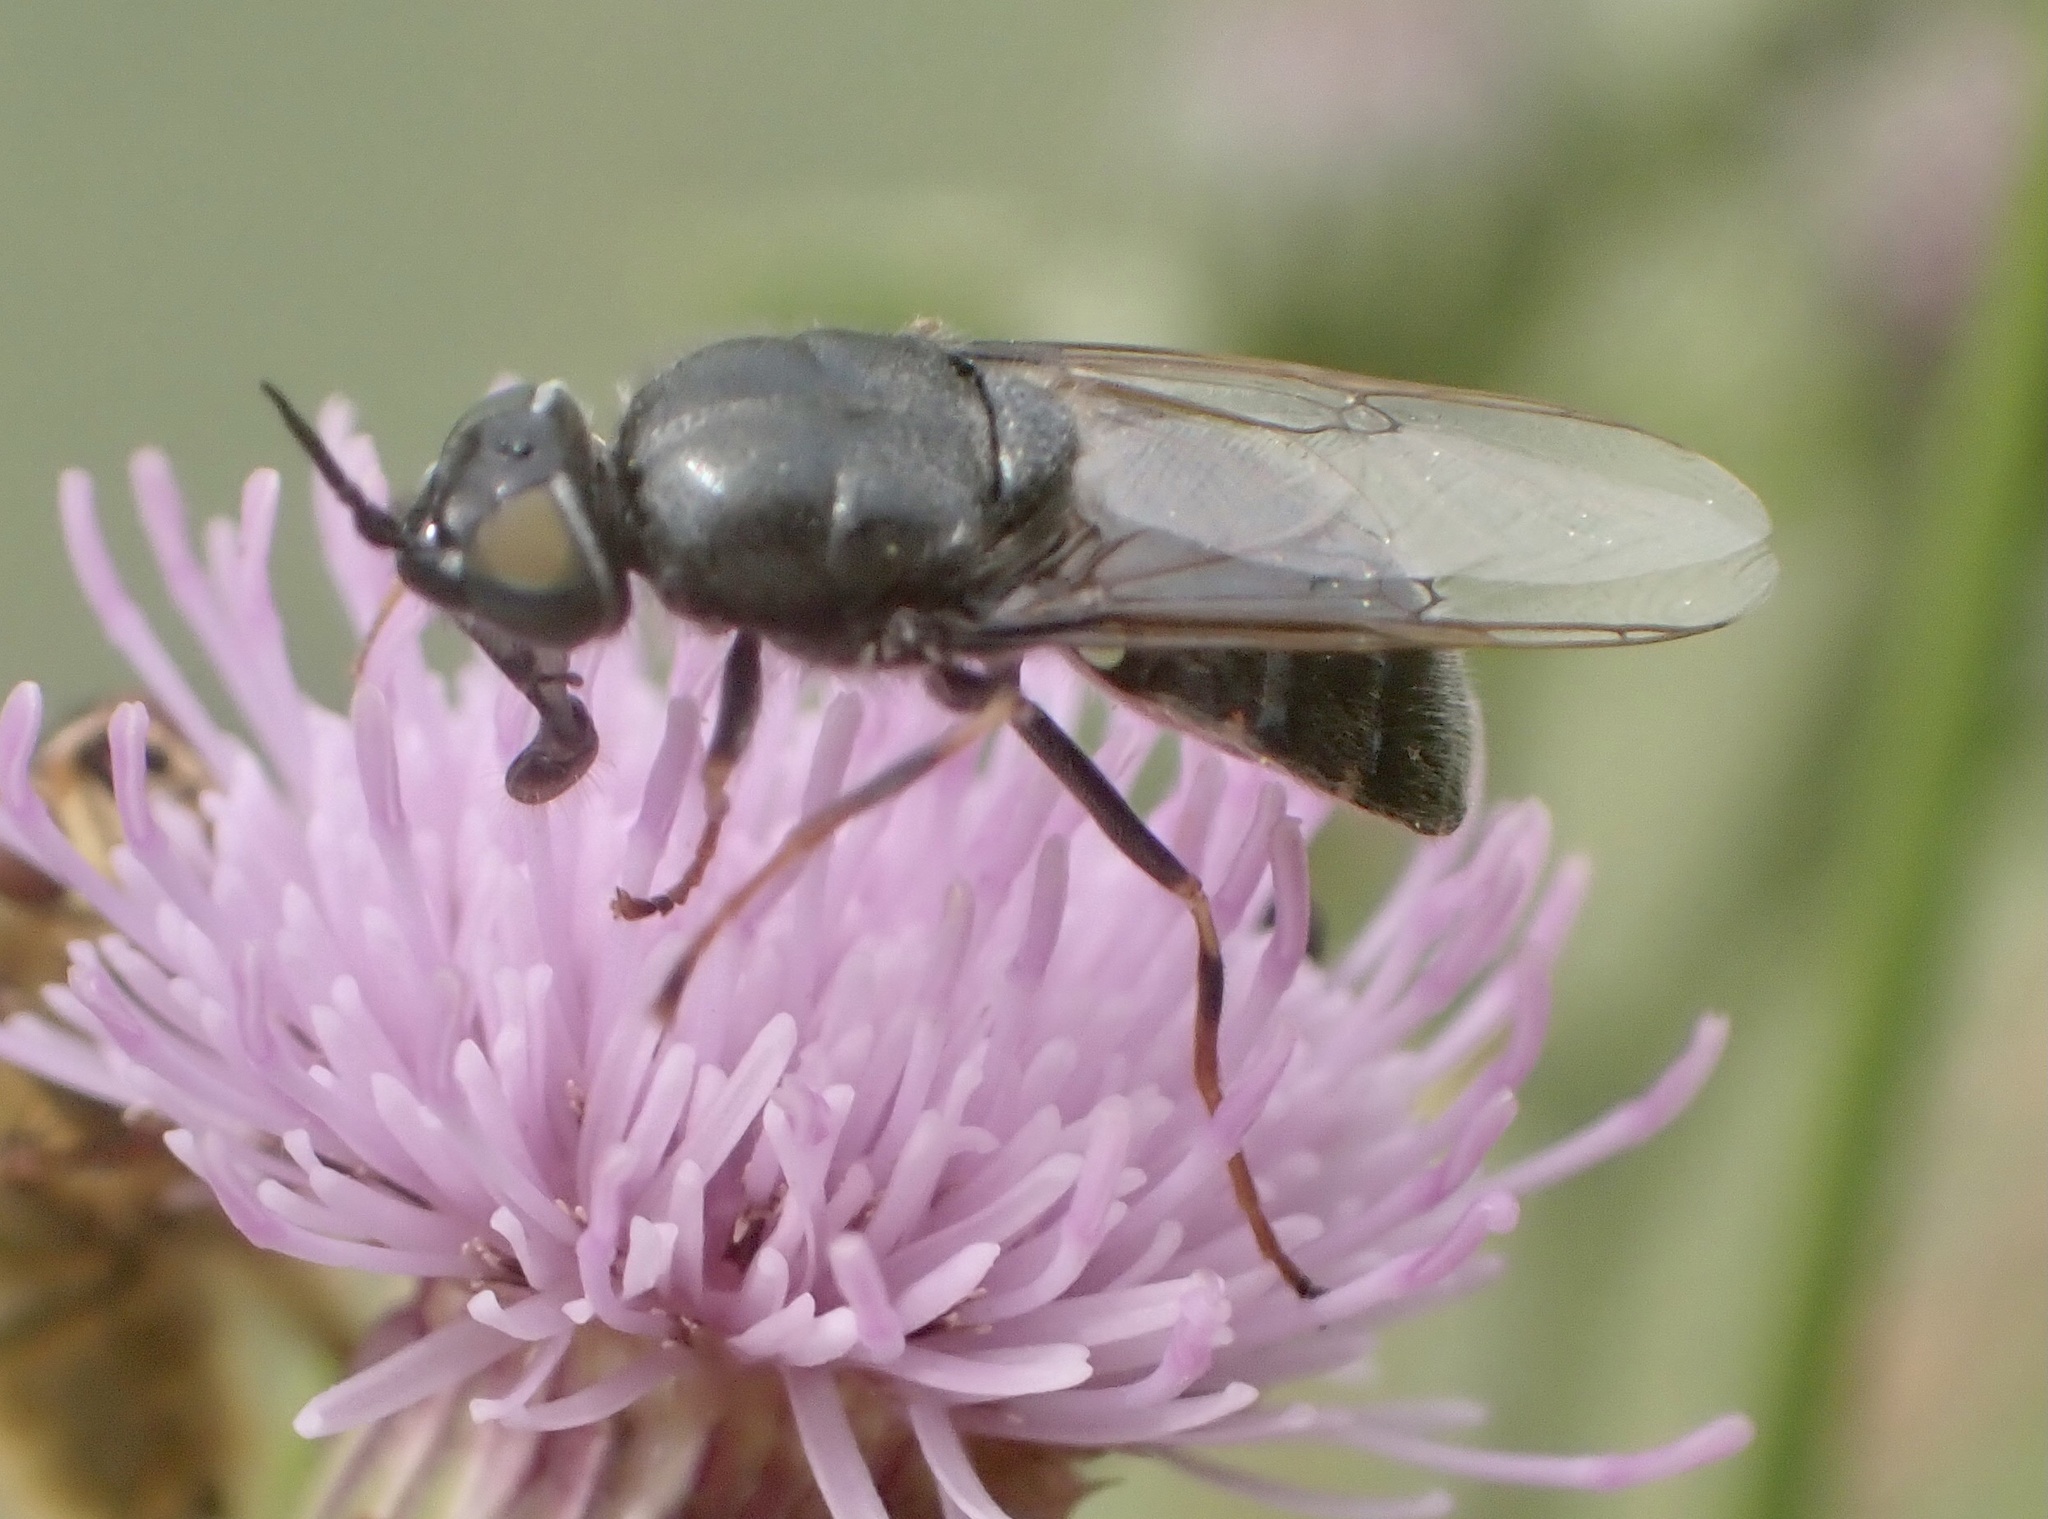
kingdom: Animalia
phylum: Arthropoda
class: Insecta
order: Diptera
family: Stratiomyidae
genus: Odontomyia
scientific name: Odontomyia tigrina
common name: Black colonel
